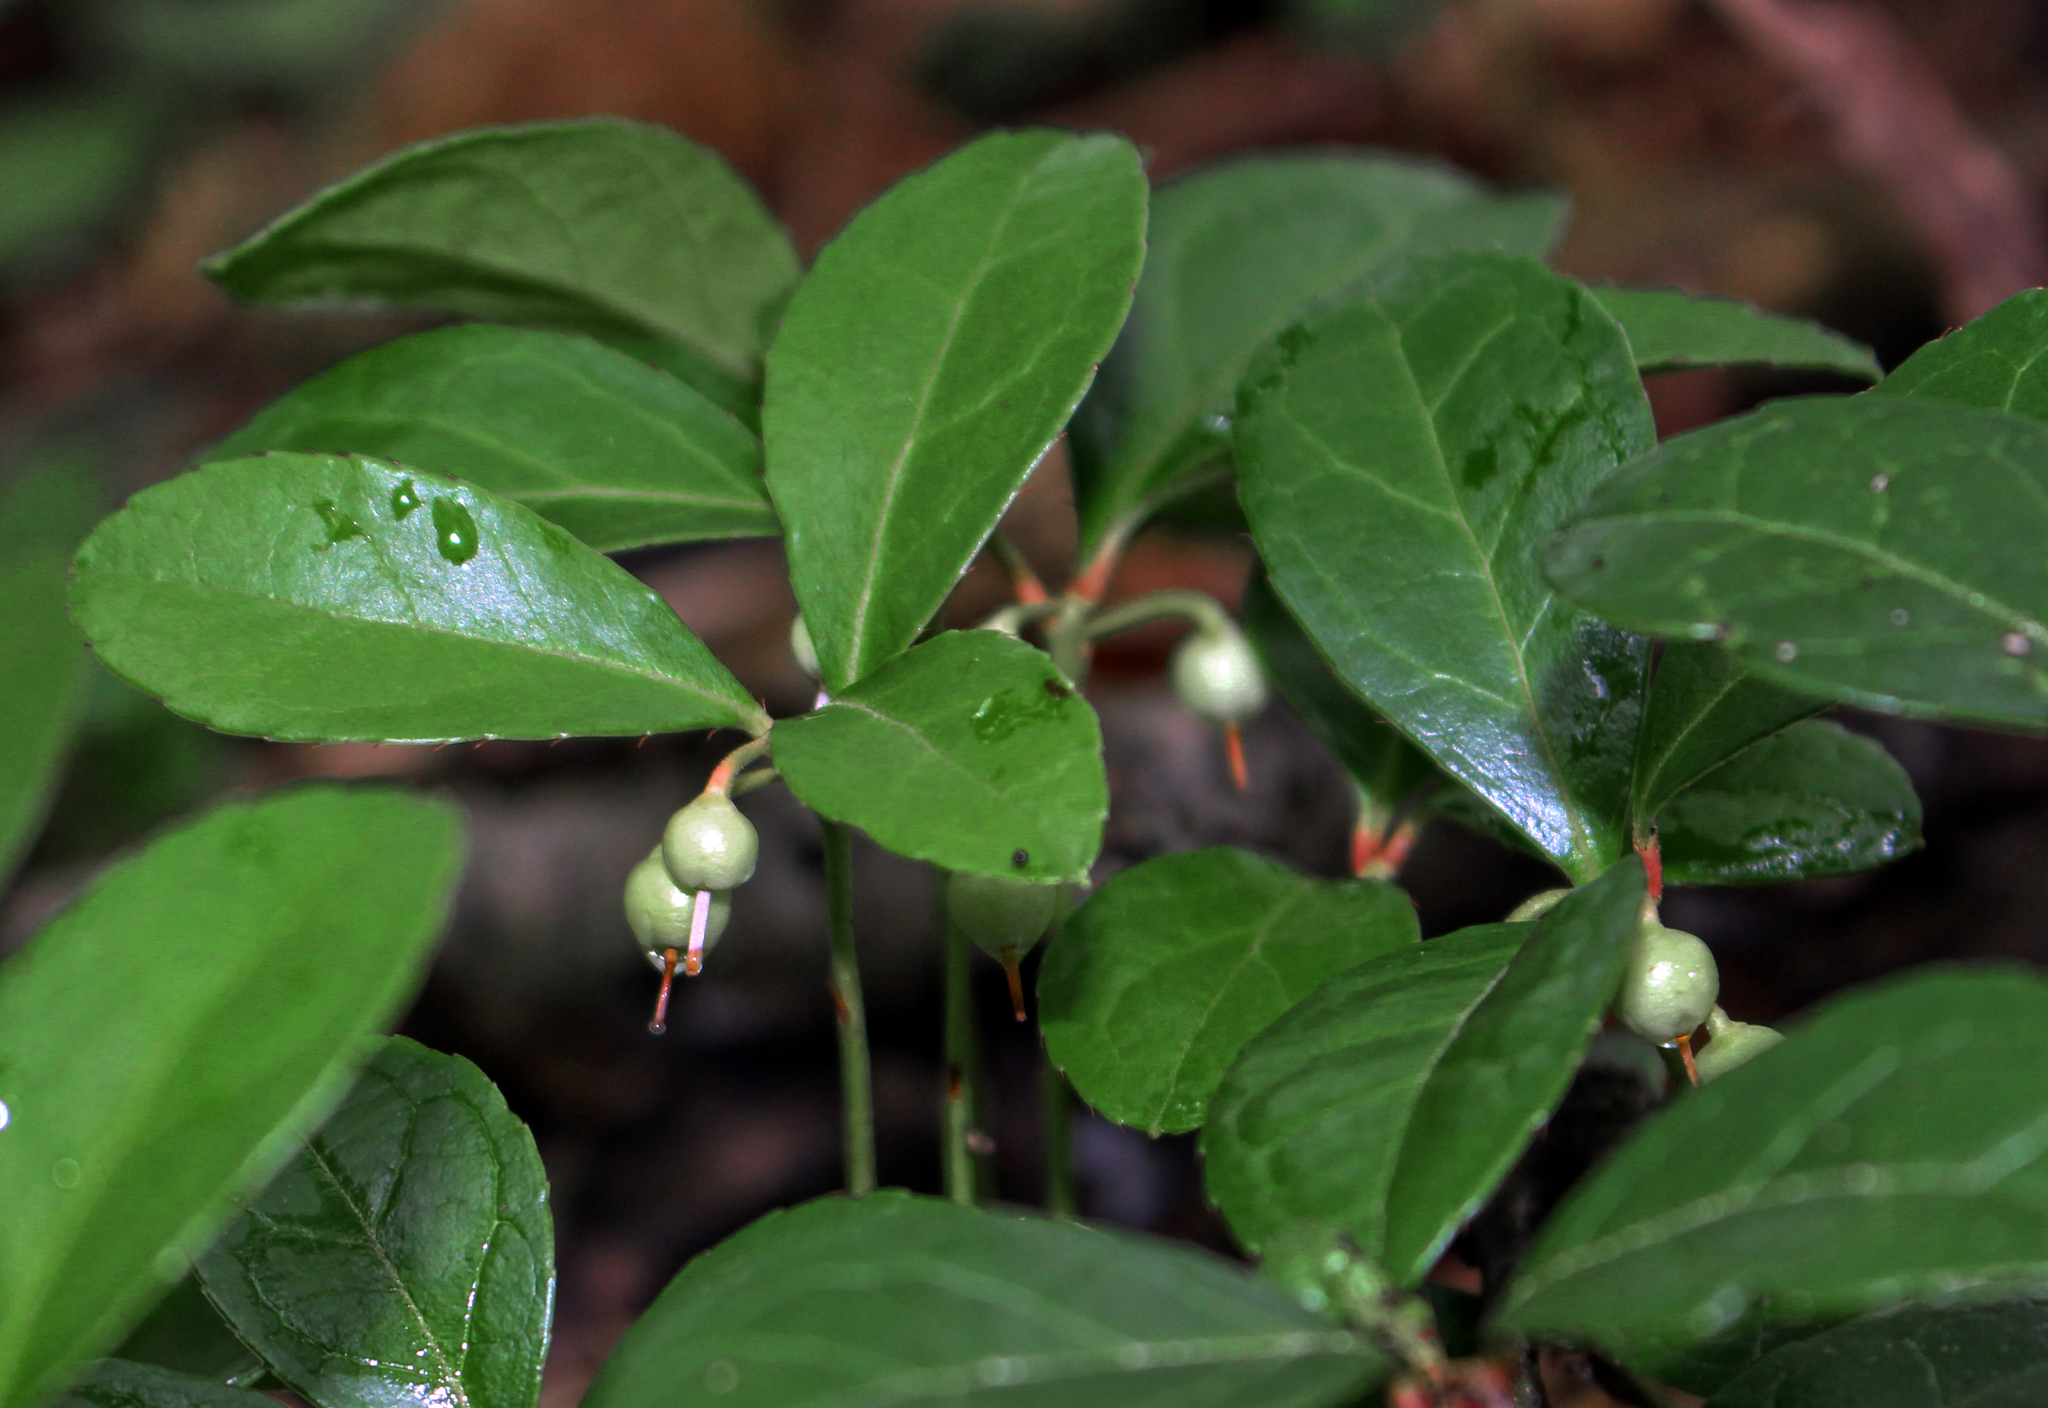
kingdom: Plantae
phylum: Tracheophyta
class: Magnoliopsida
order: Ericales
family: Ericaceae
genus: Gaultheria
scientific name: Gaultheria procumbens
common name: Checkerberry
